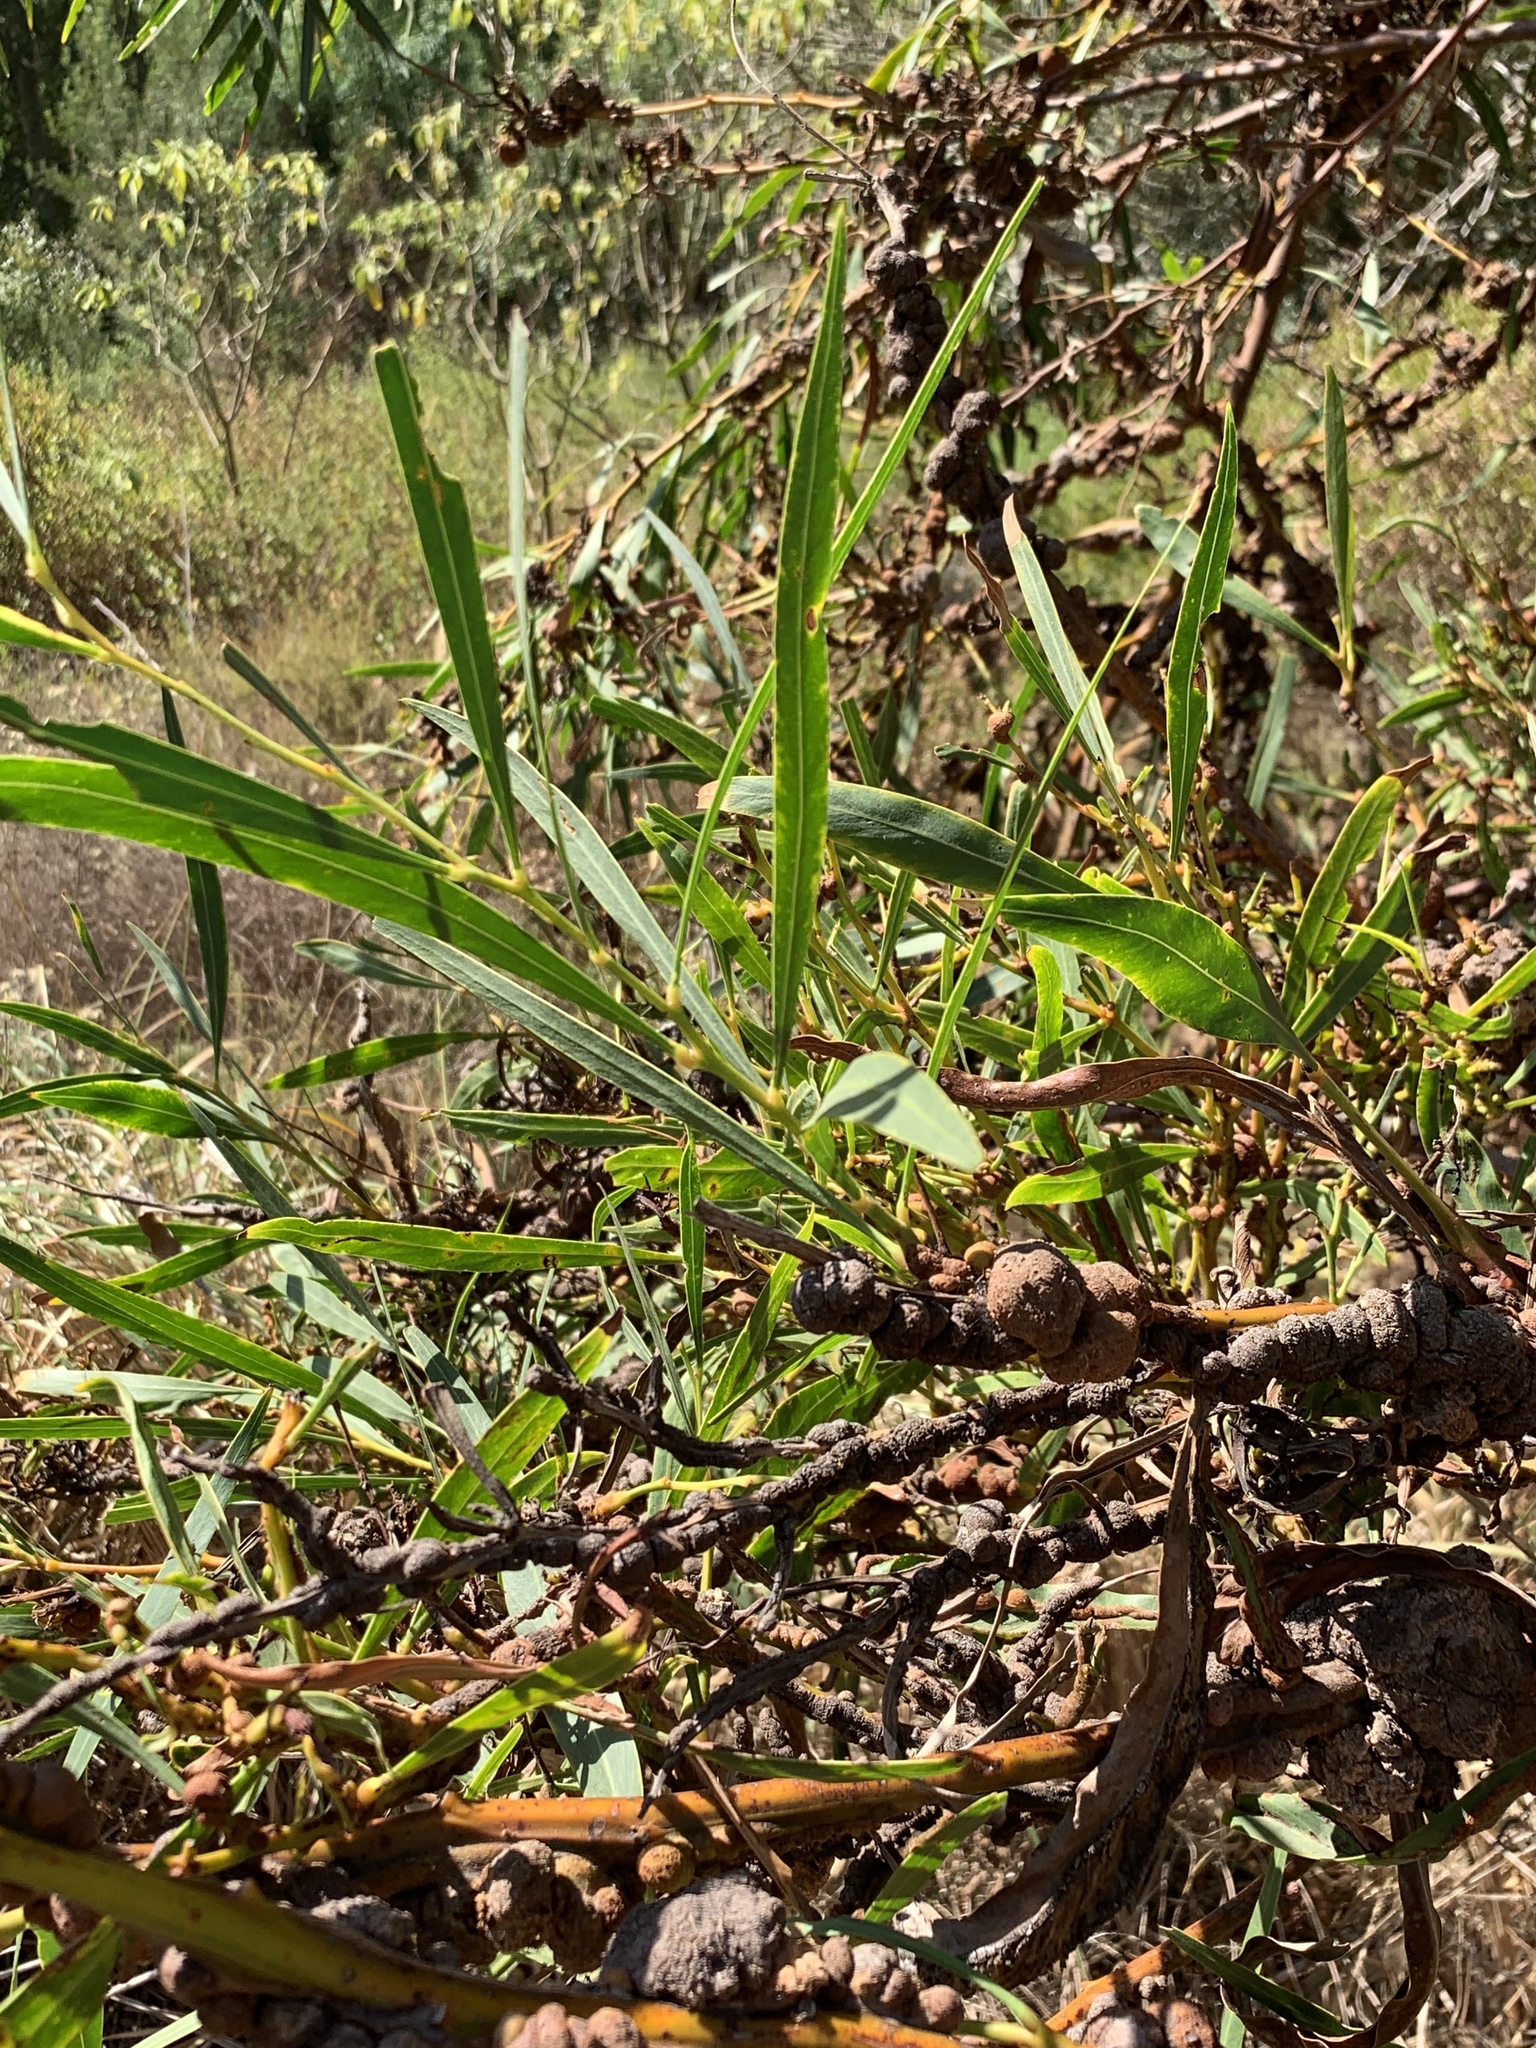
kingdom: Fungi
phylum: Basidiomycota
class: Pucciniomycetes
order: Pucciniales
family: Uromycladiaceae
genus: Uromycladium
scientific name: Uromycladium morrisii
